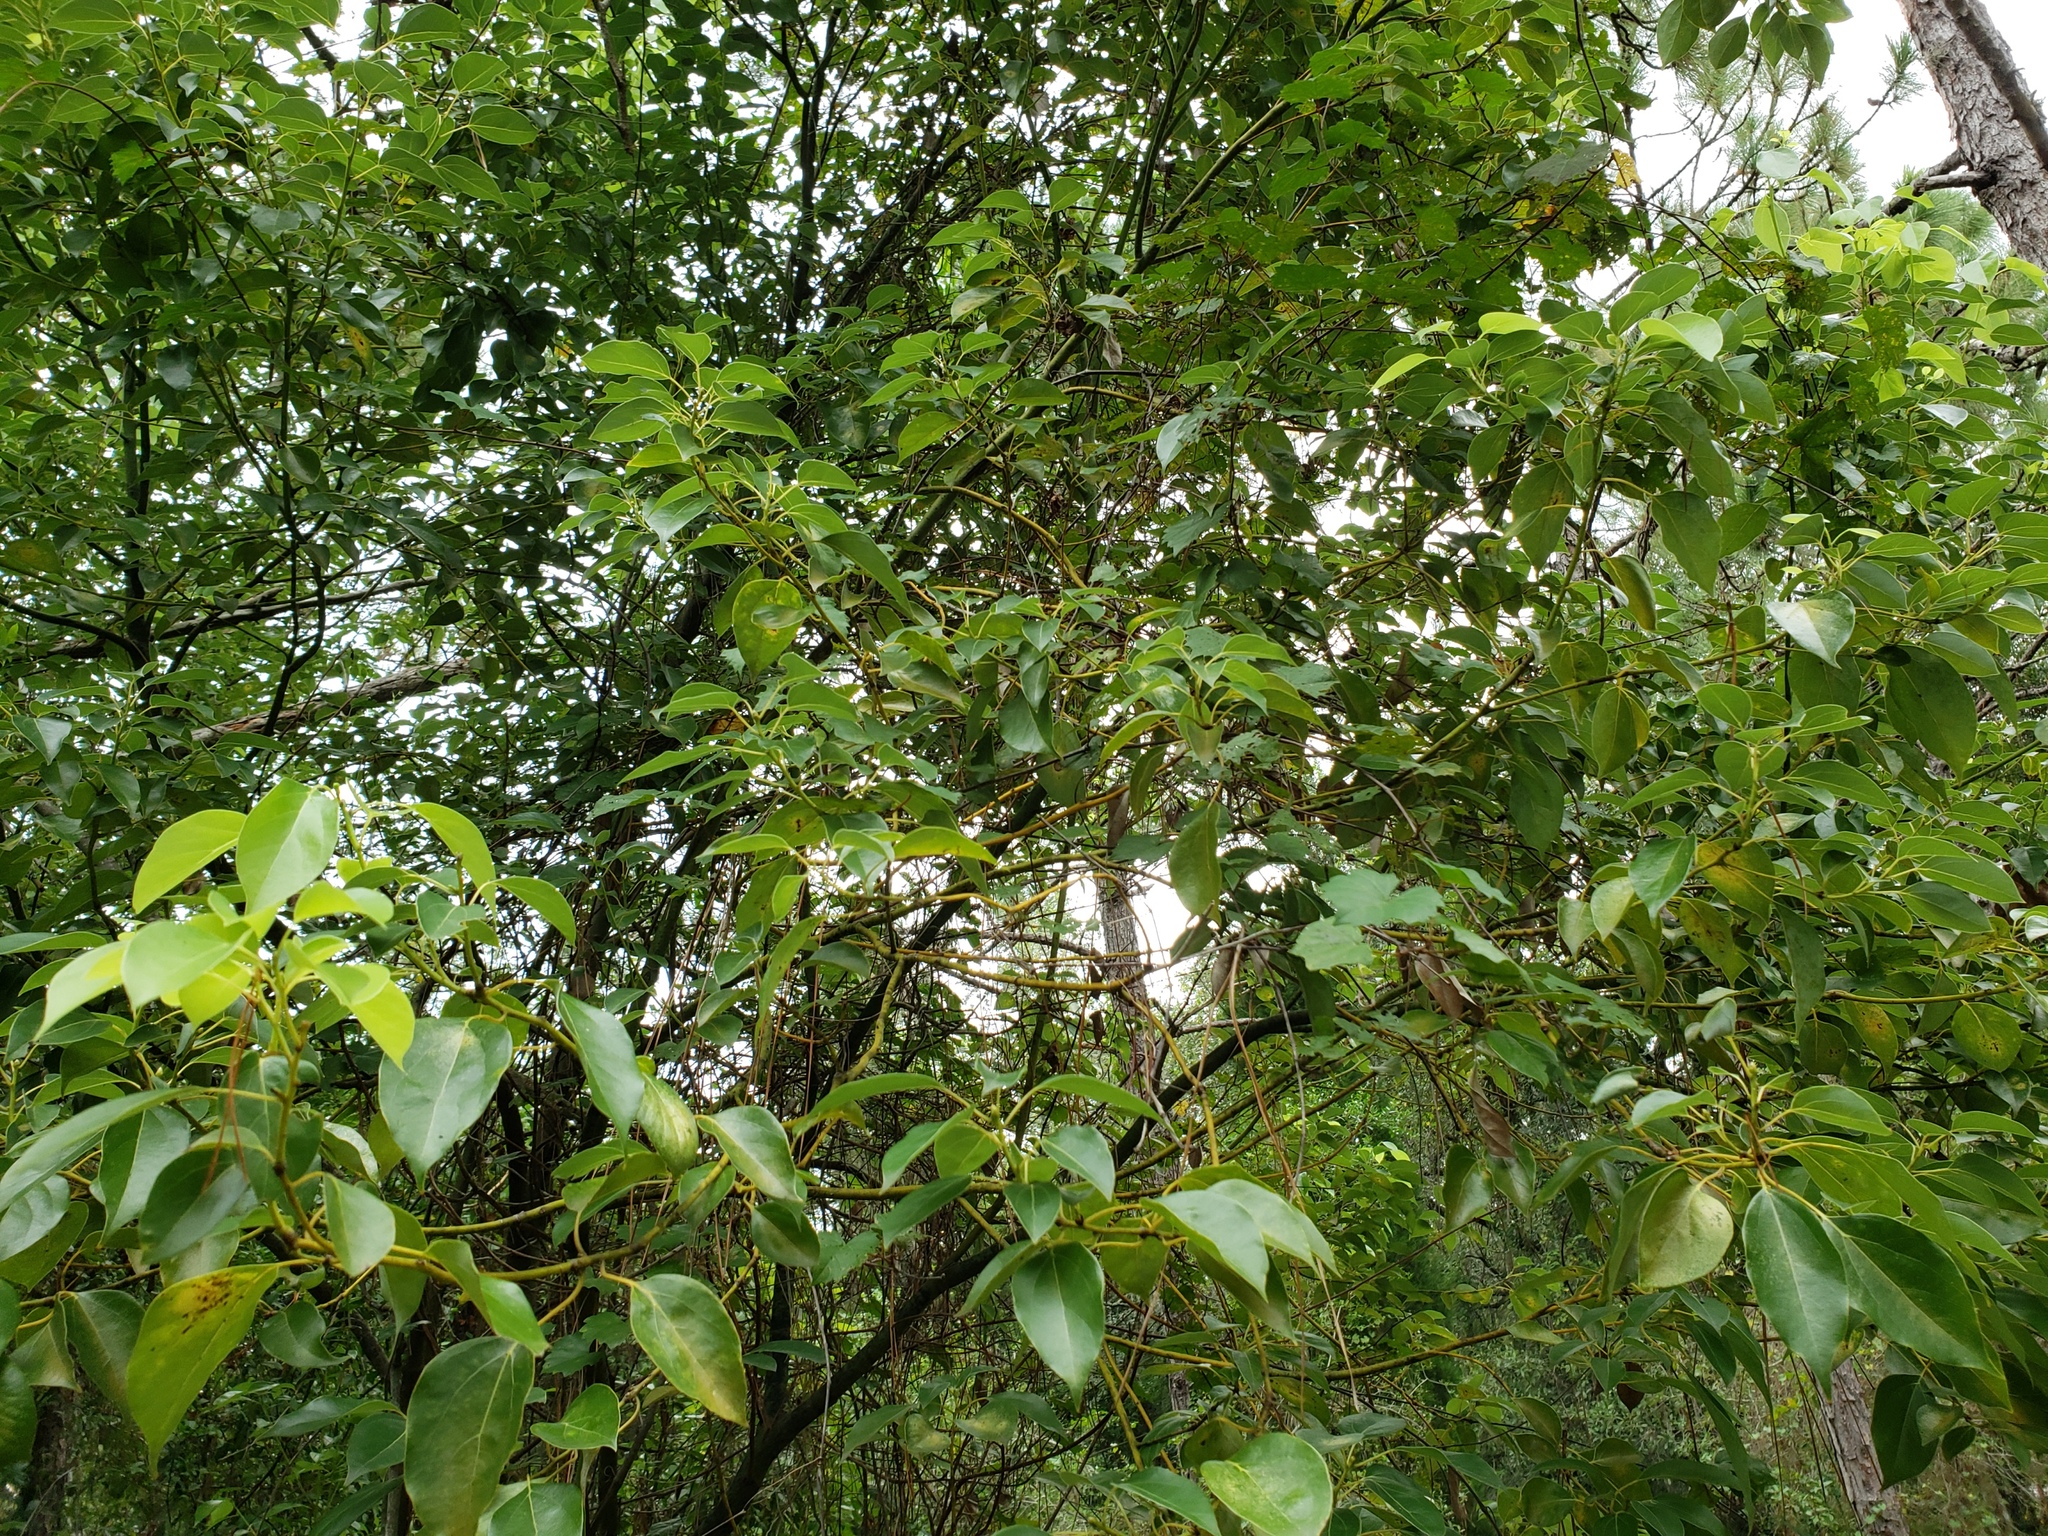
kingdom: Plantae
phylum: Tracheophyta
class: Magnoliopsida
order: Laurales
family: Lauraceae
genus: Cinnamomum
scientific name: Cinnamomum camphora
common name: Camphortree
